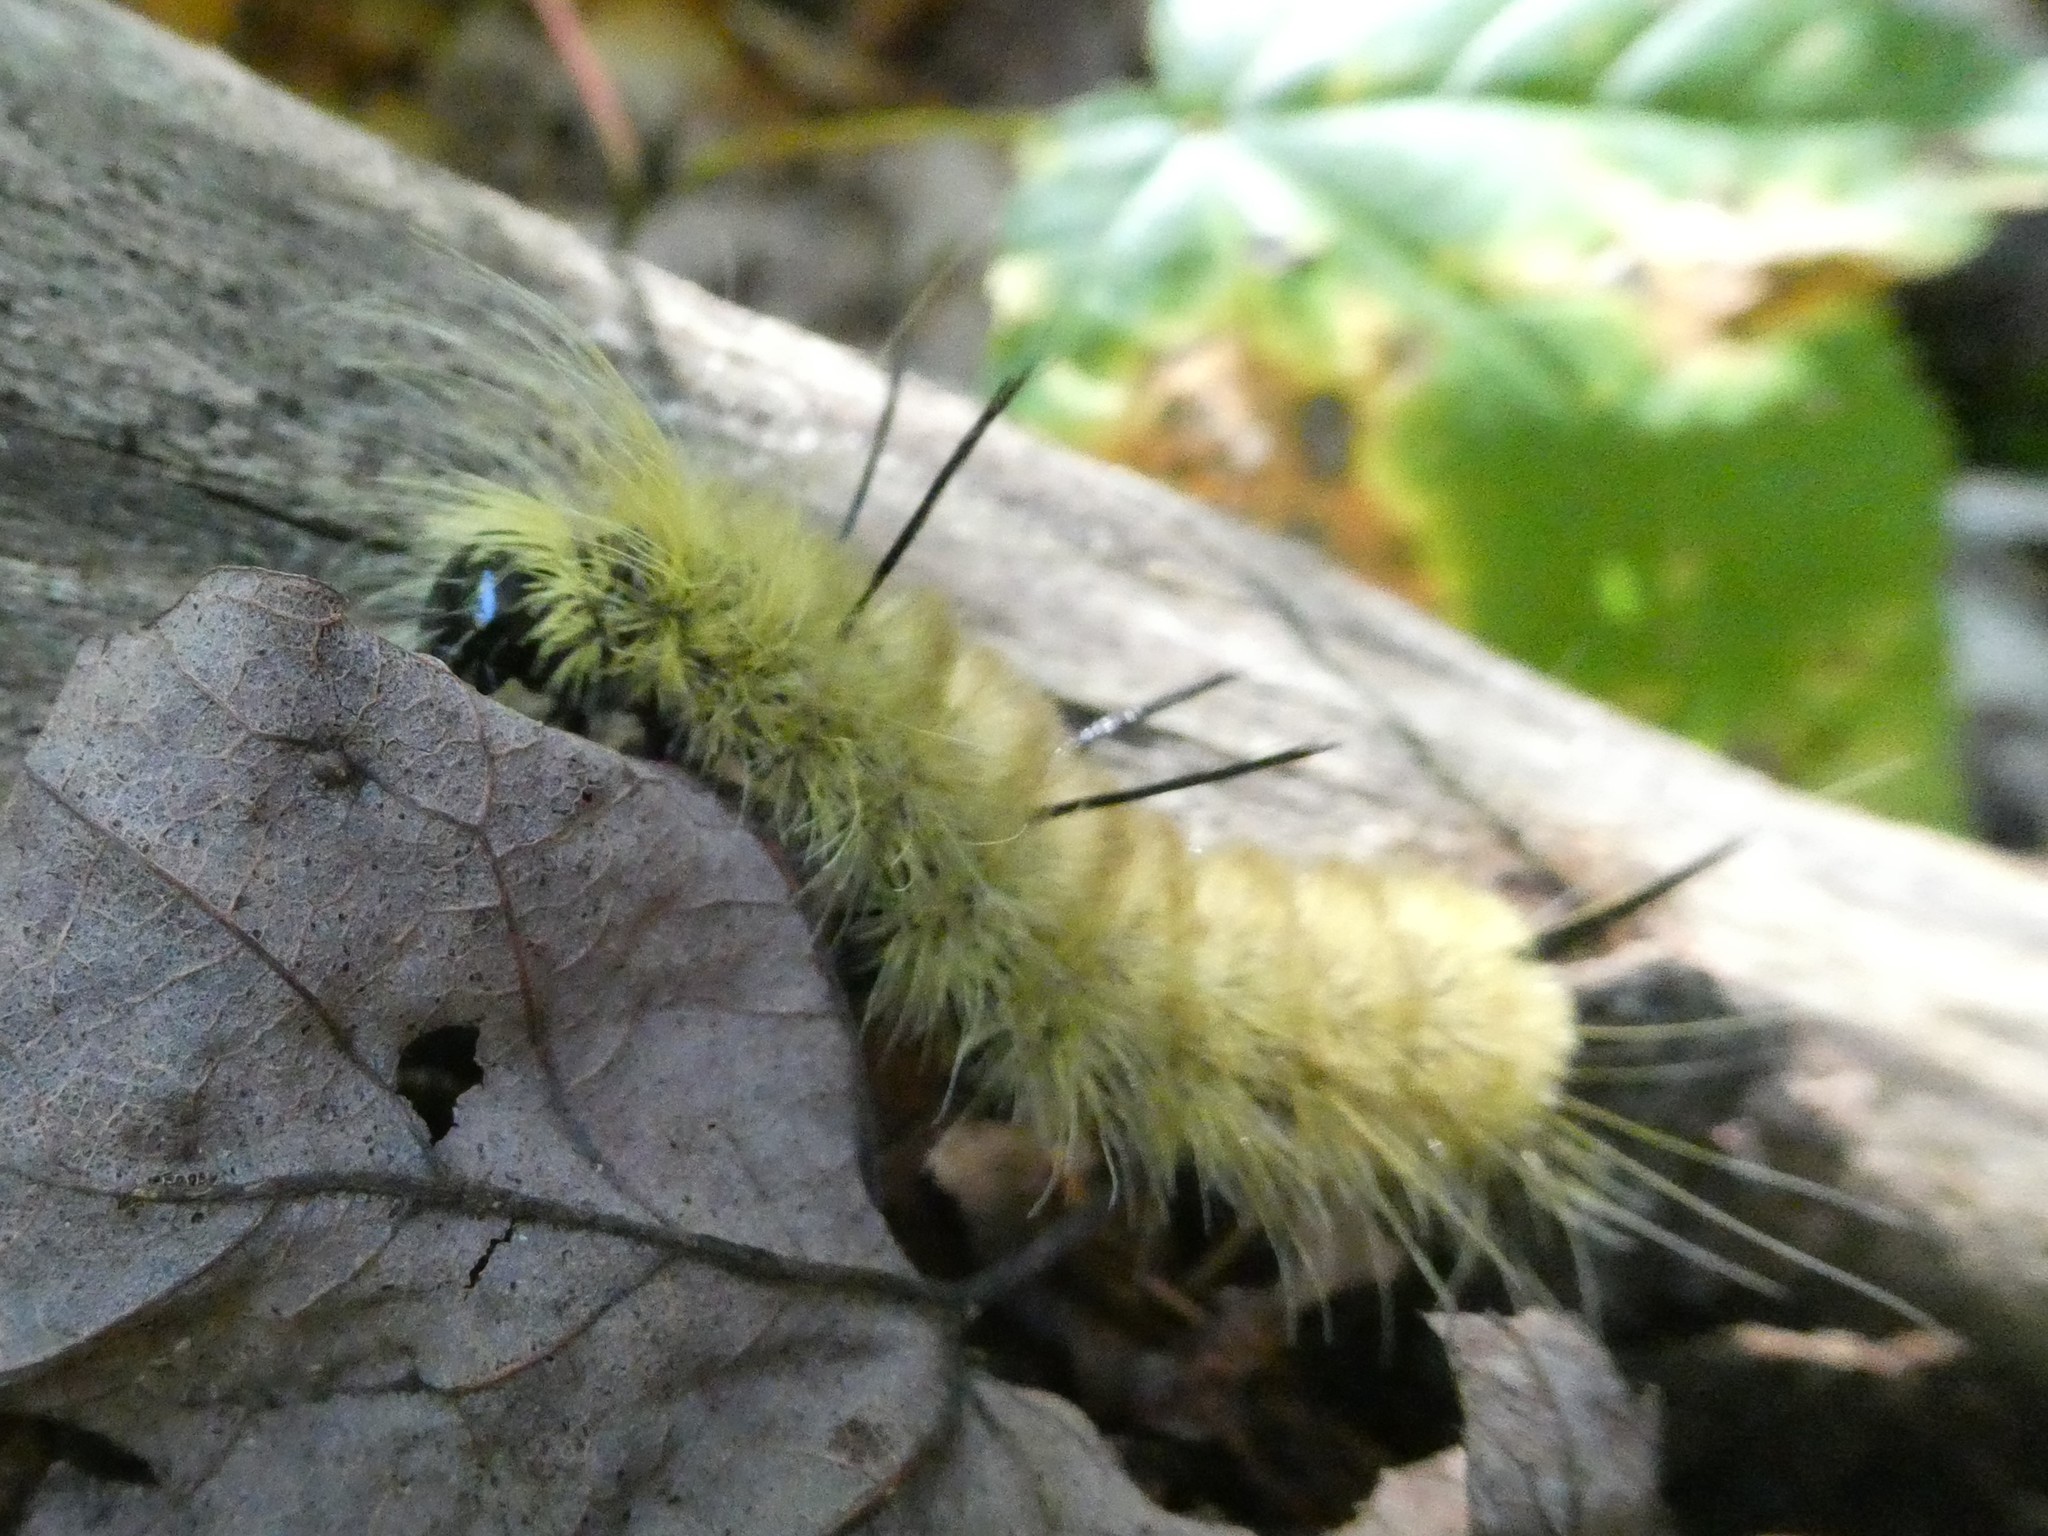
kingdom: Animalia
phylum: Arthropoda
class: Insecta
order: Lepidoptera
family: Noctuidae
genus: Acronicta
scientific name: Acronicta americana
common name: American dagger
